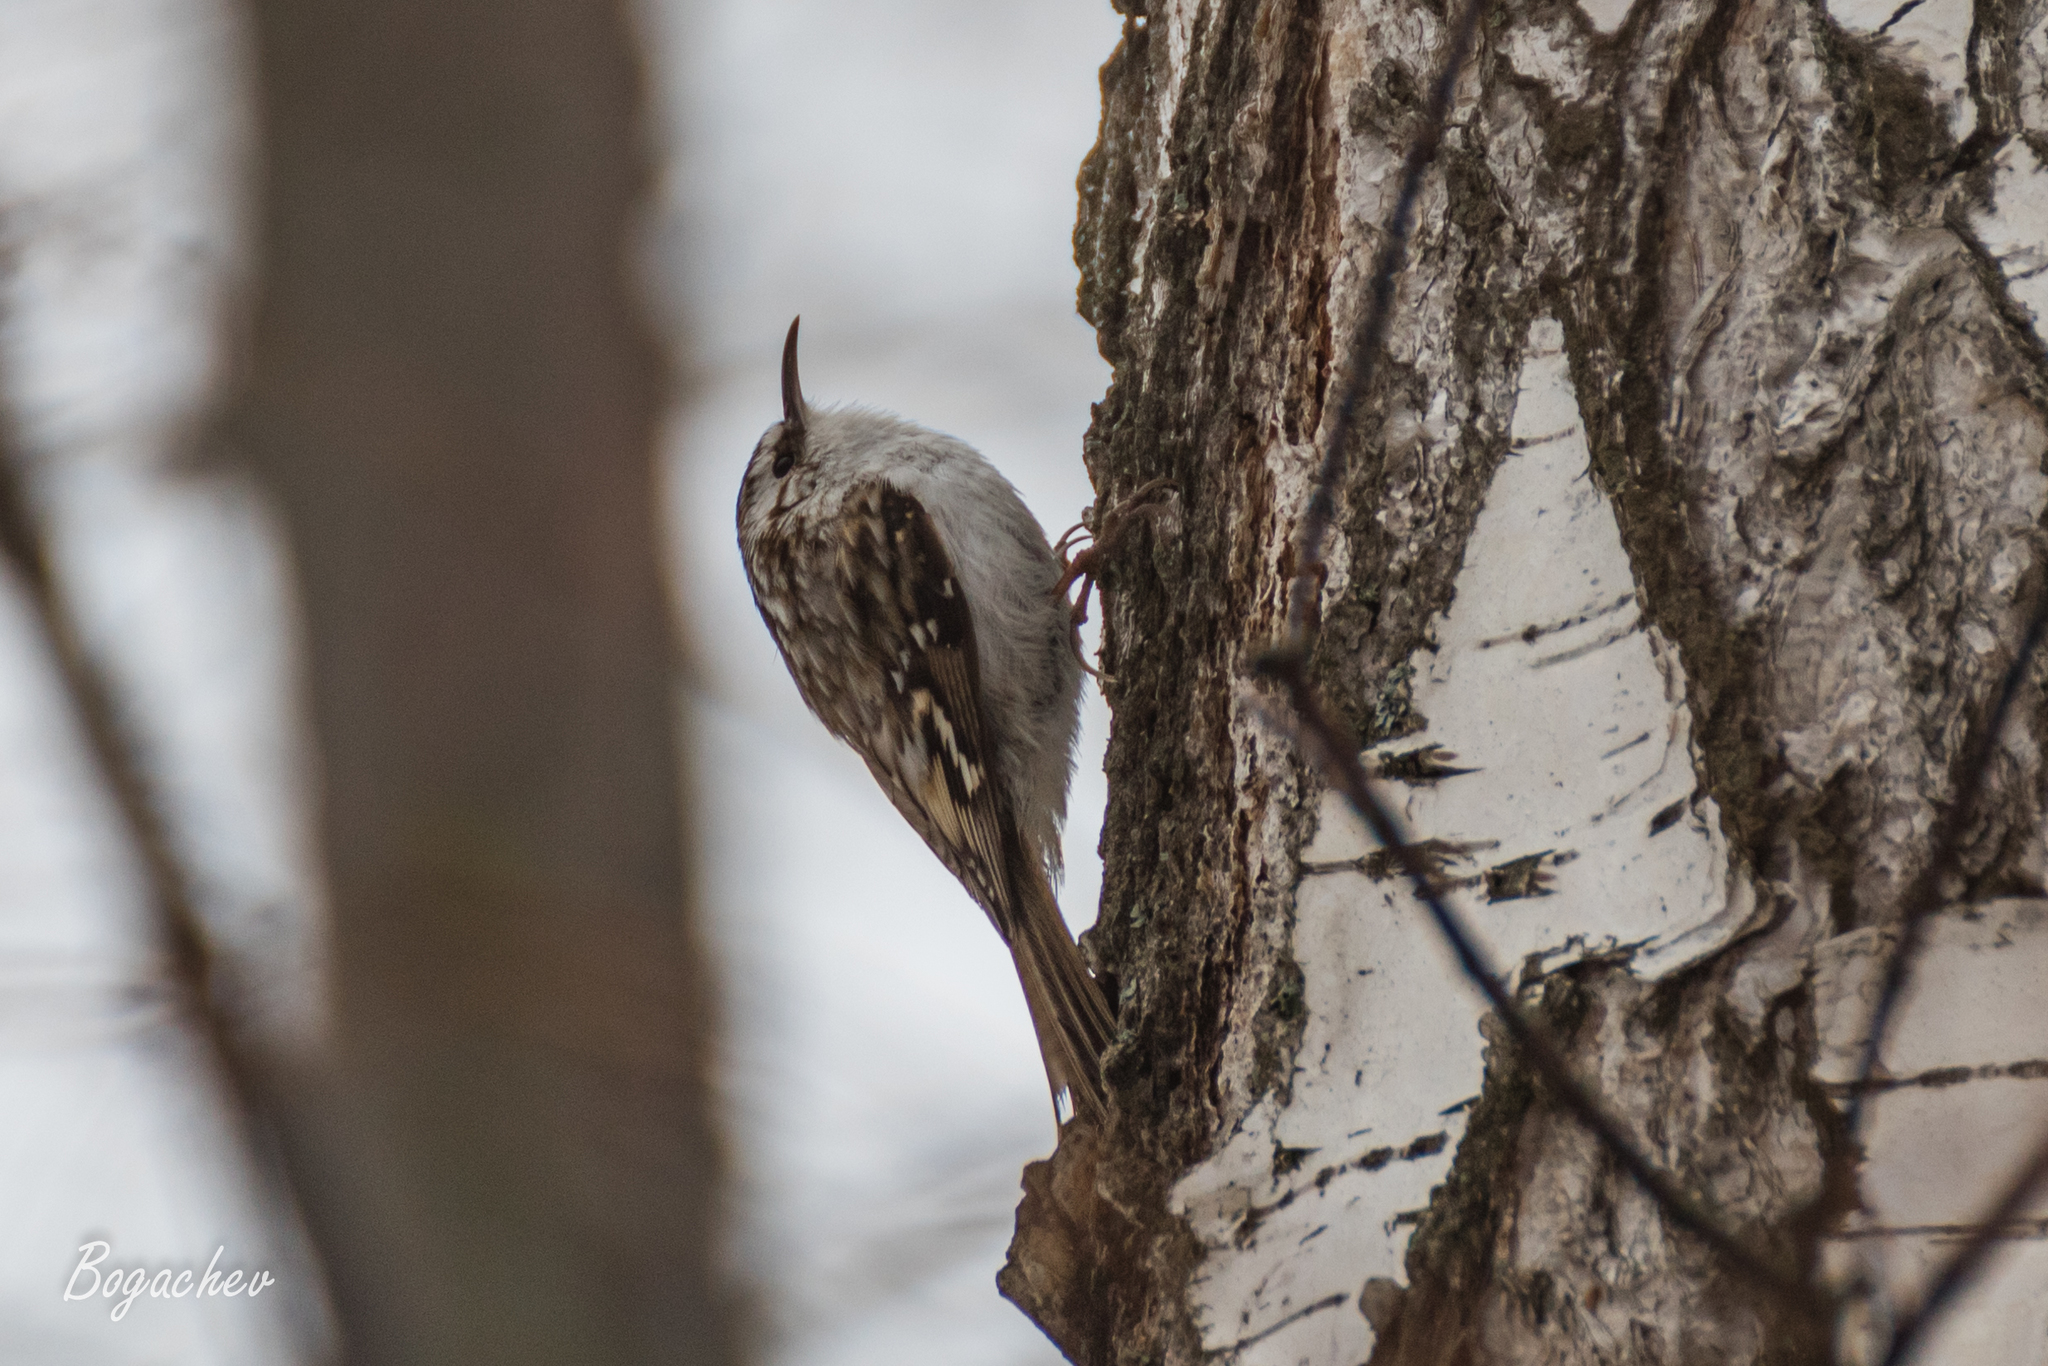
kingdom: Animalia
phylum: Chordata
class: Aves
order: Passeriformes
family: Certhiidae
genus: Certhia
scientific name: Certhia familiaris
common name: Eurasian treecreeper
